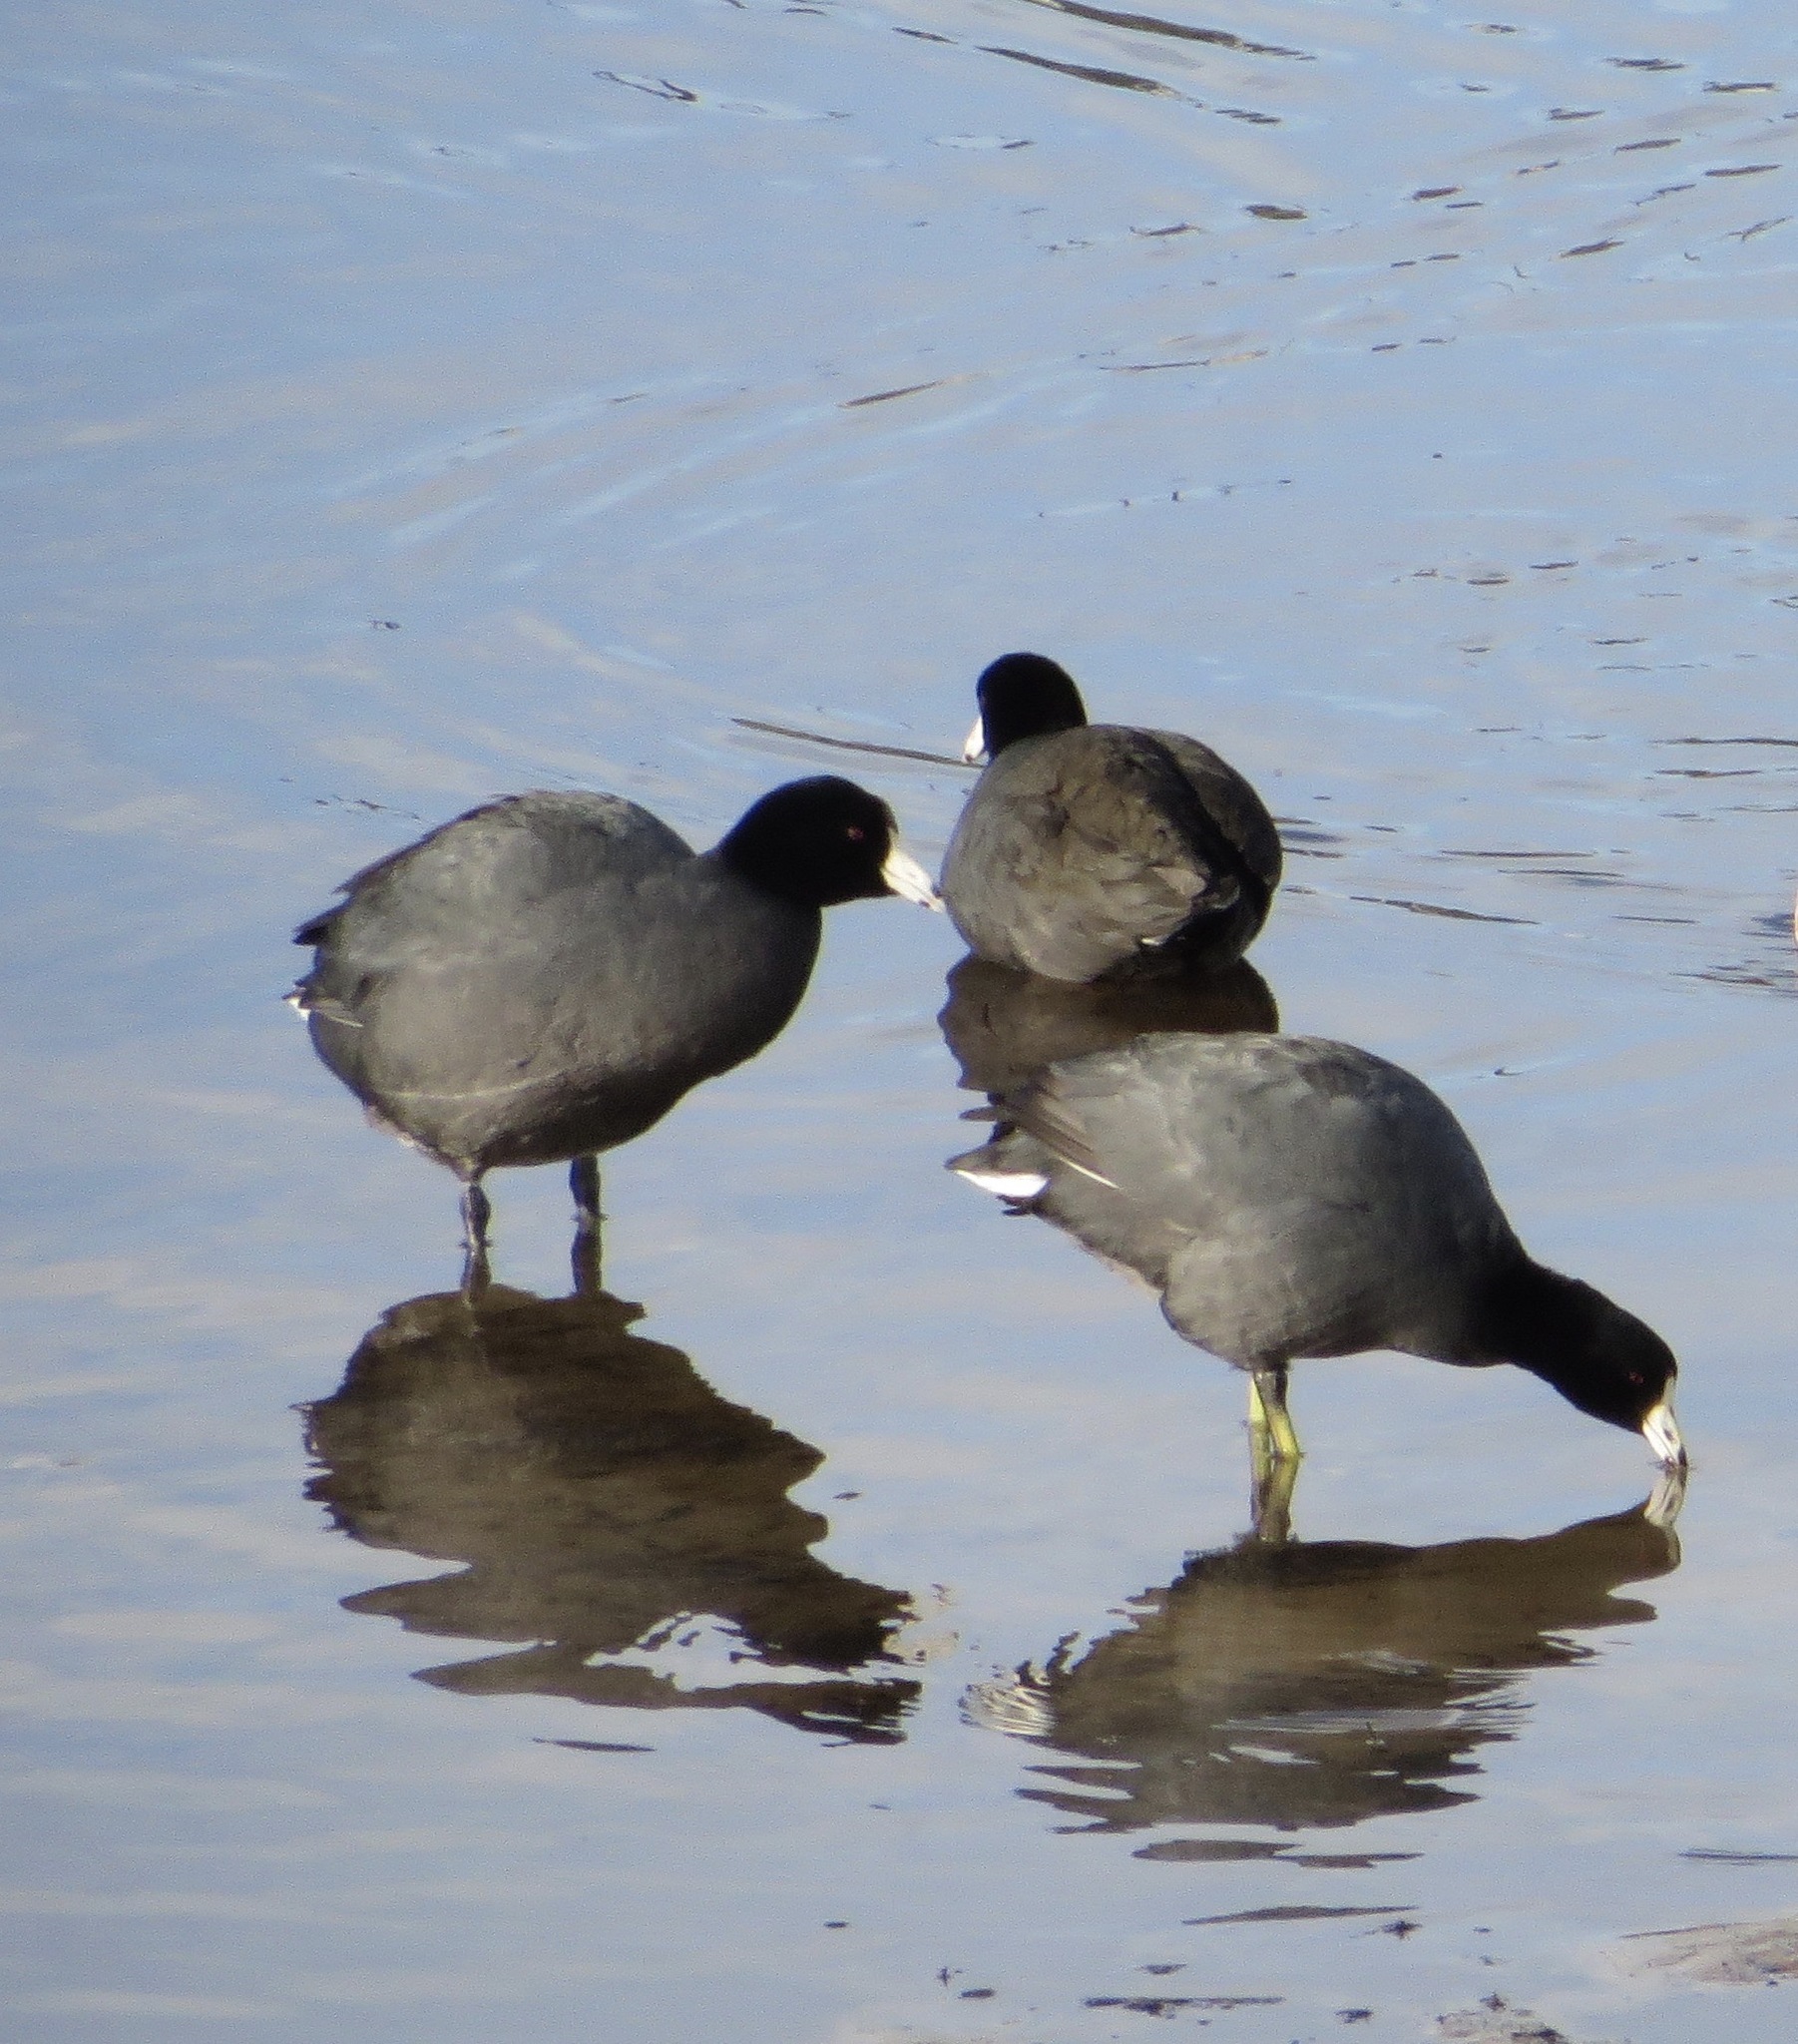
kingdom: Animalia
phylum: Chordata
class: Aves
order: Gruiformes
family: Rallidae
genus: Fulica
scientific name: Fulica americana
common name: American coot
